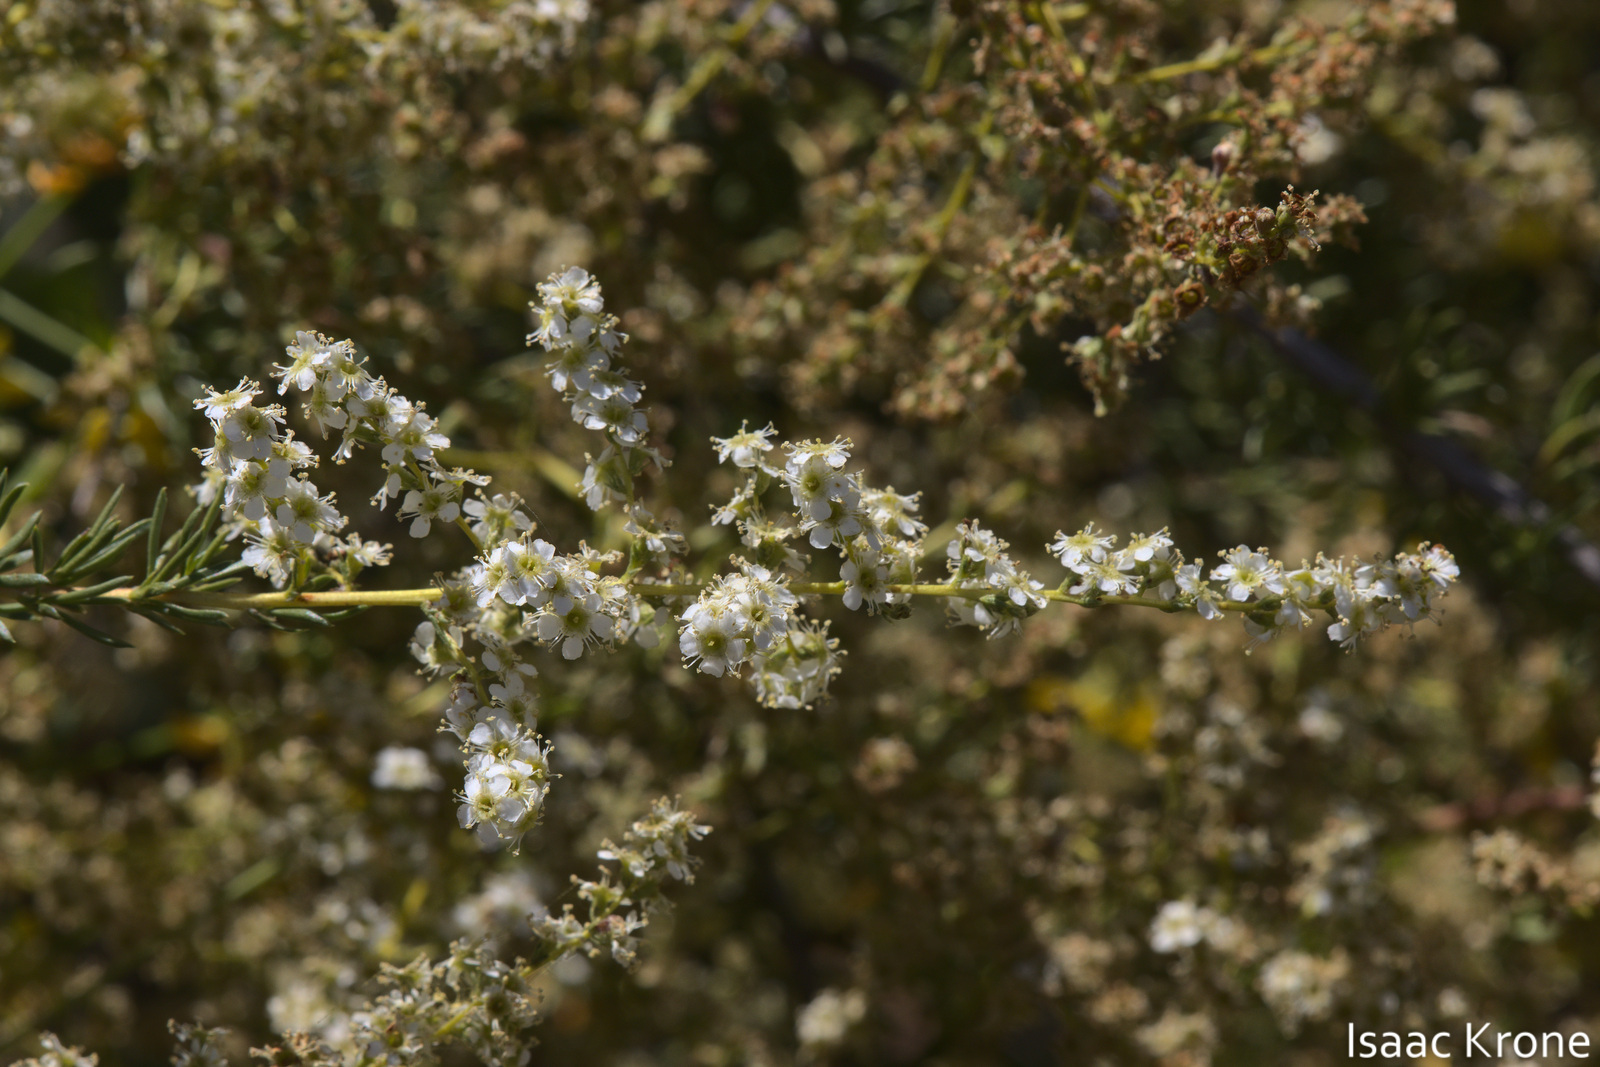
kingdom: Plantae
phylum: Tracheophyta
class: Magnoliopsida
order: Rosales
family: Rosaceae
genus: Adenostoma
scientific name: Adenostoma fasciculatum
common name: Chamise
